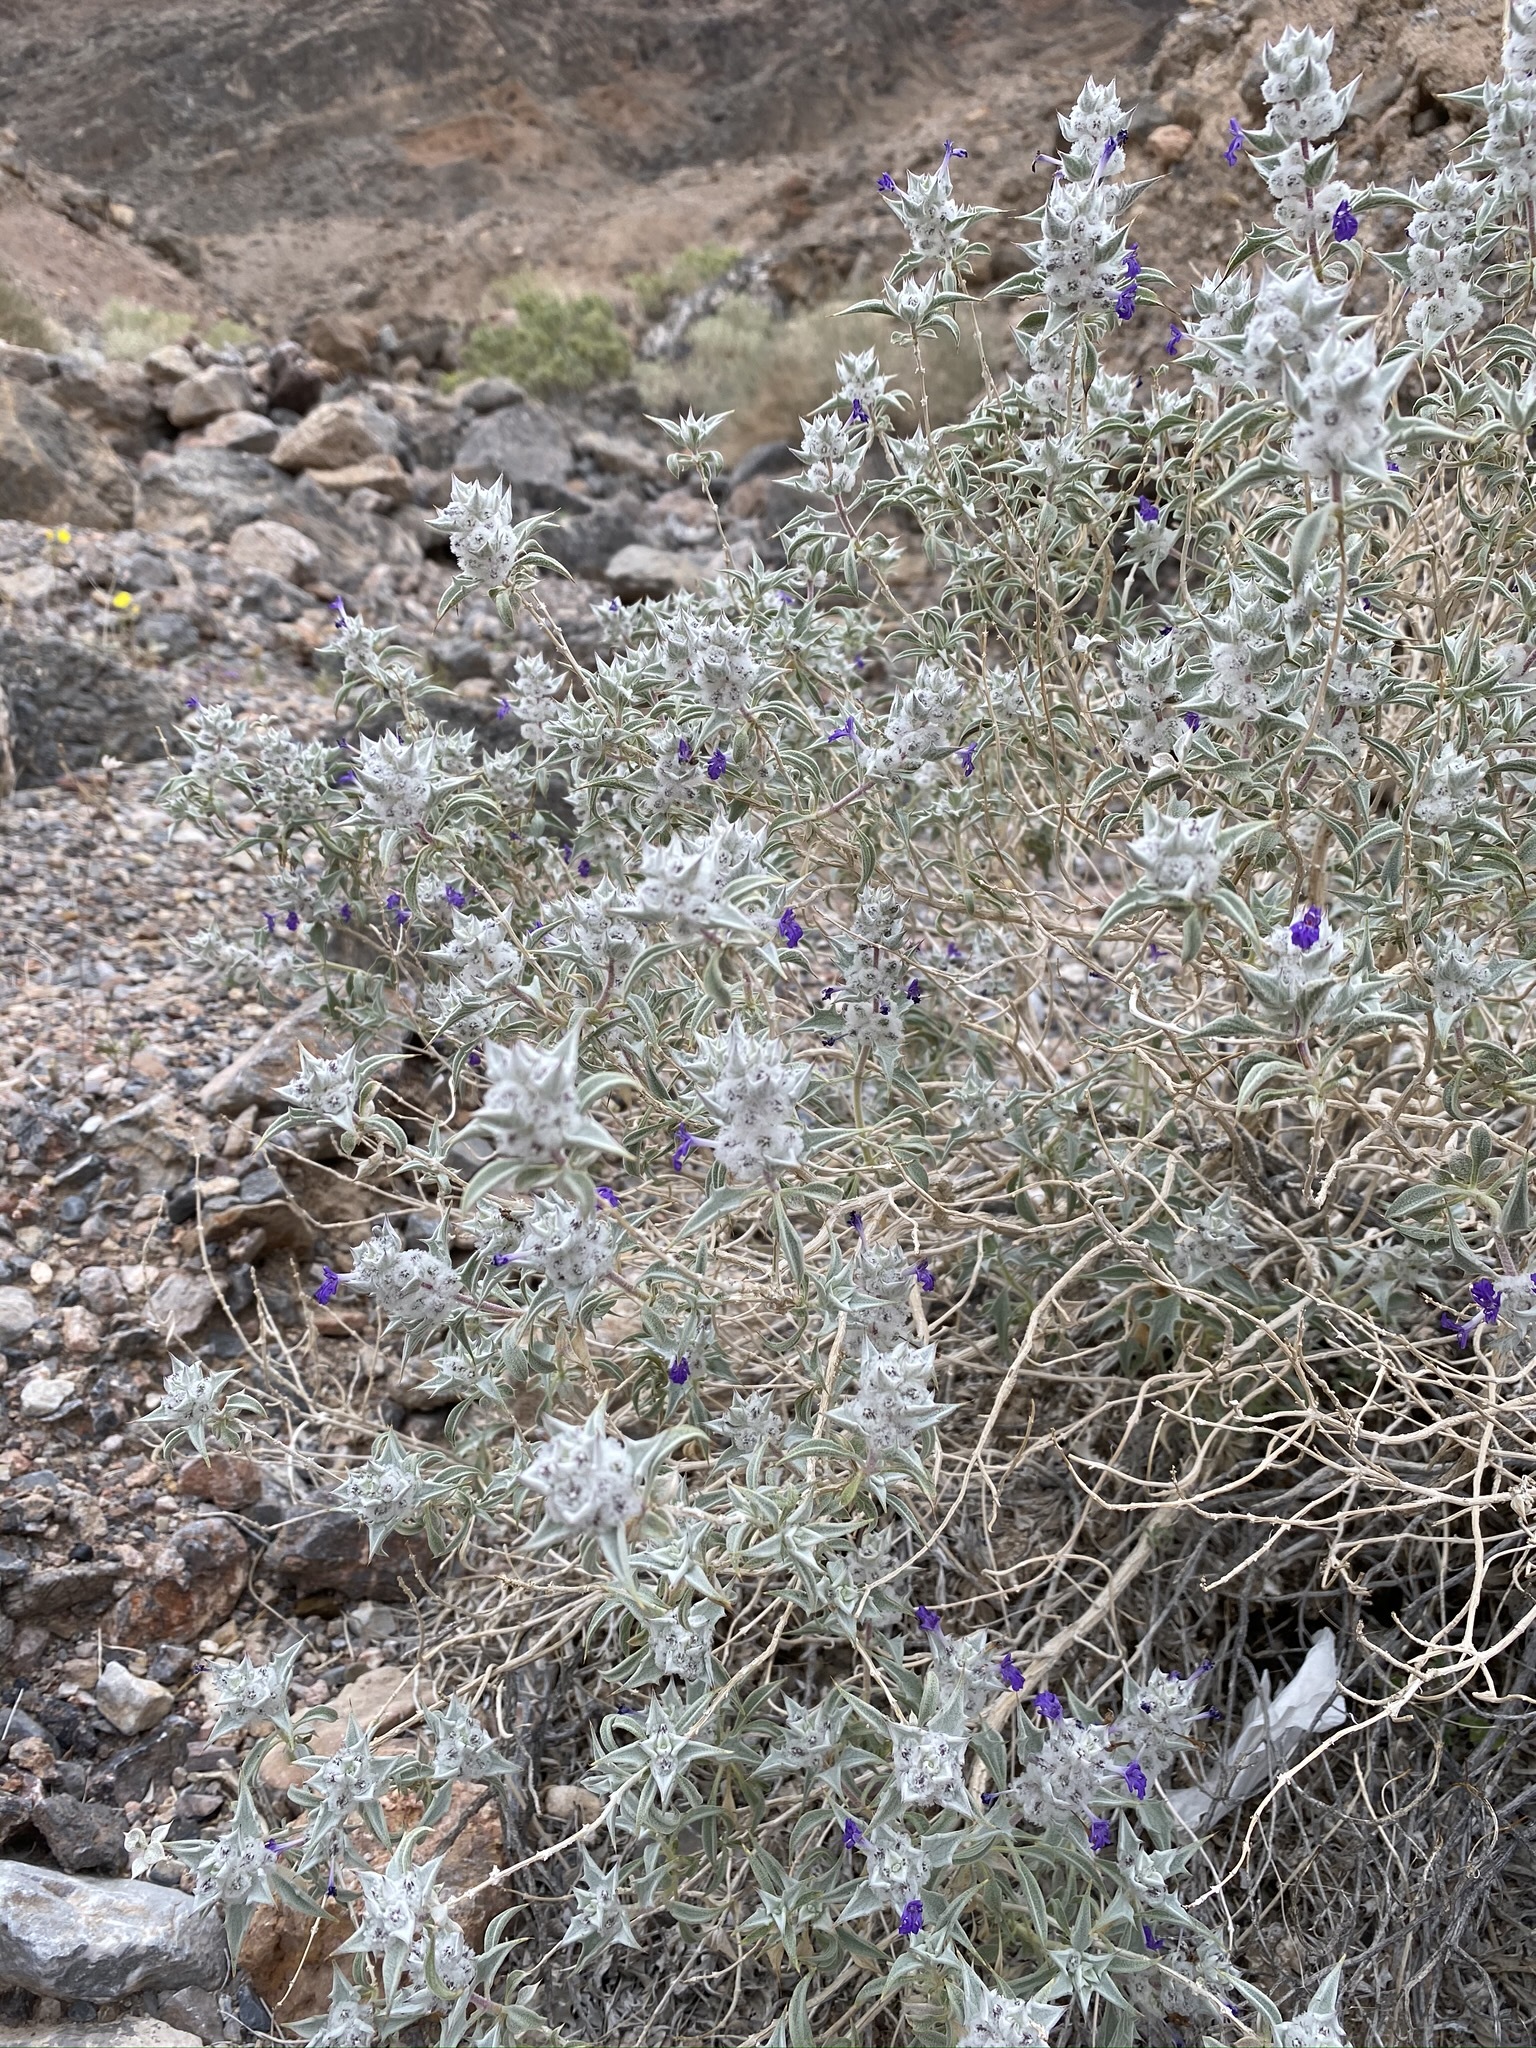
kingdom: Plantae
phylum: Tracheophyta
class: Magnoliopsida
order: Lamiales
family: Lamiaceae
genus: Salvia
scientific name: Salvia funerea
